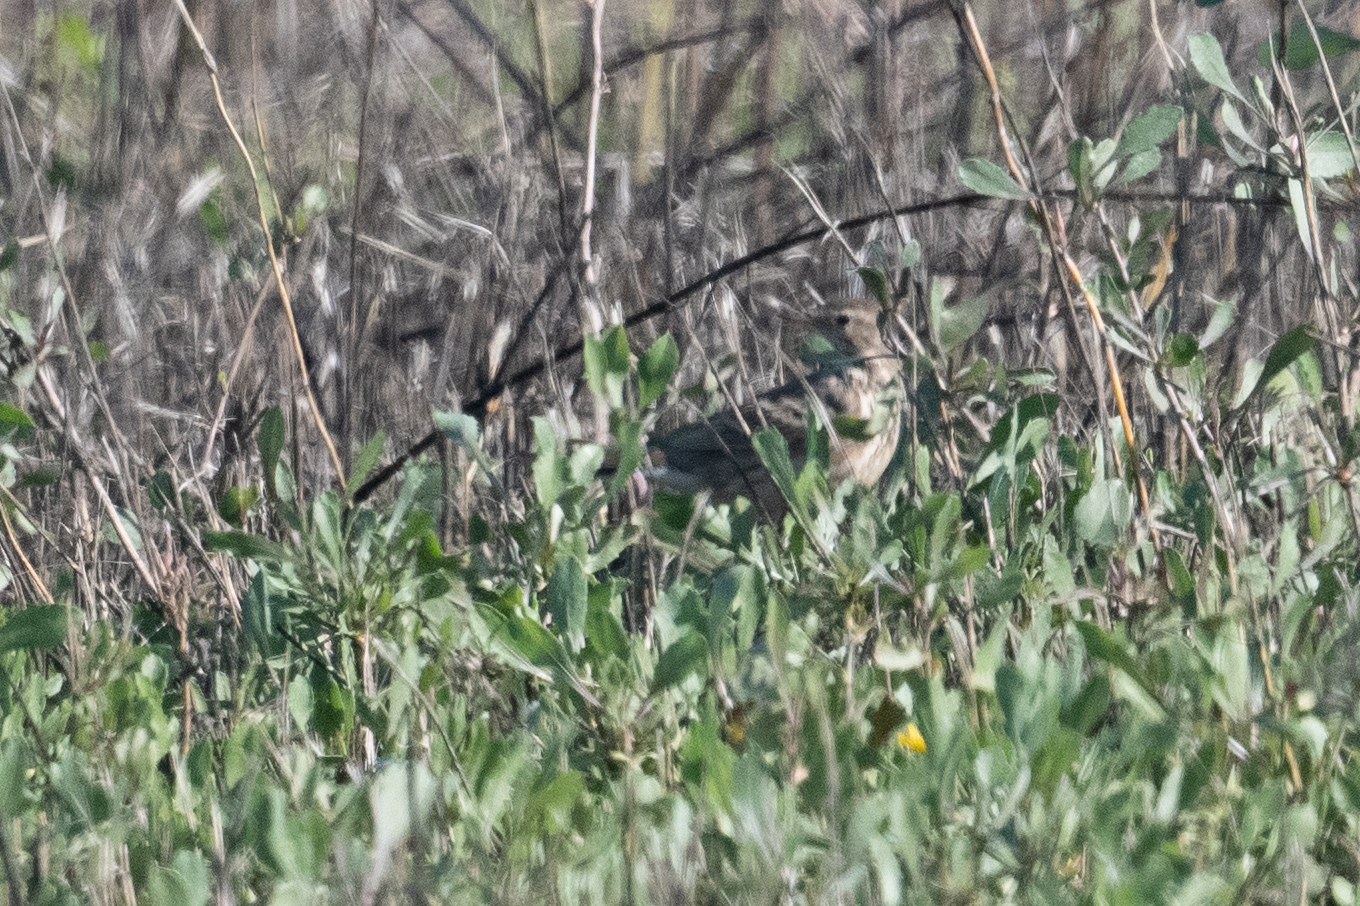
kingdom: Animalia
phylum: Chordata
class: Aves
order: Passeriformes
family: Motacillidae
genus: Anthus
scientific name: Anthus rubescens
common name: Buff-bellied pipit
